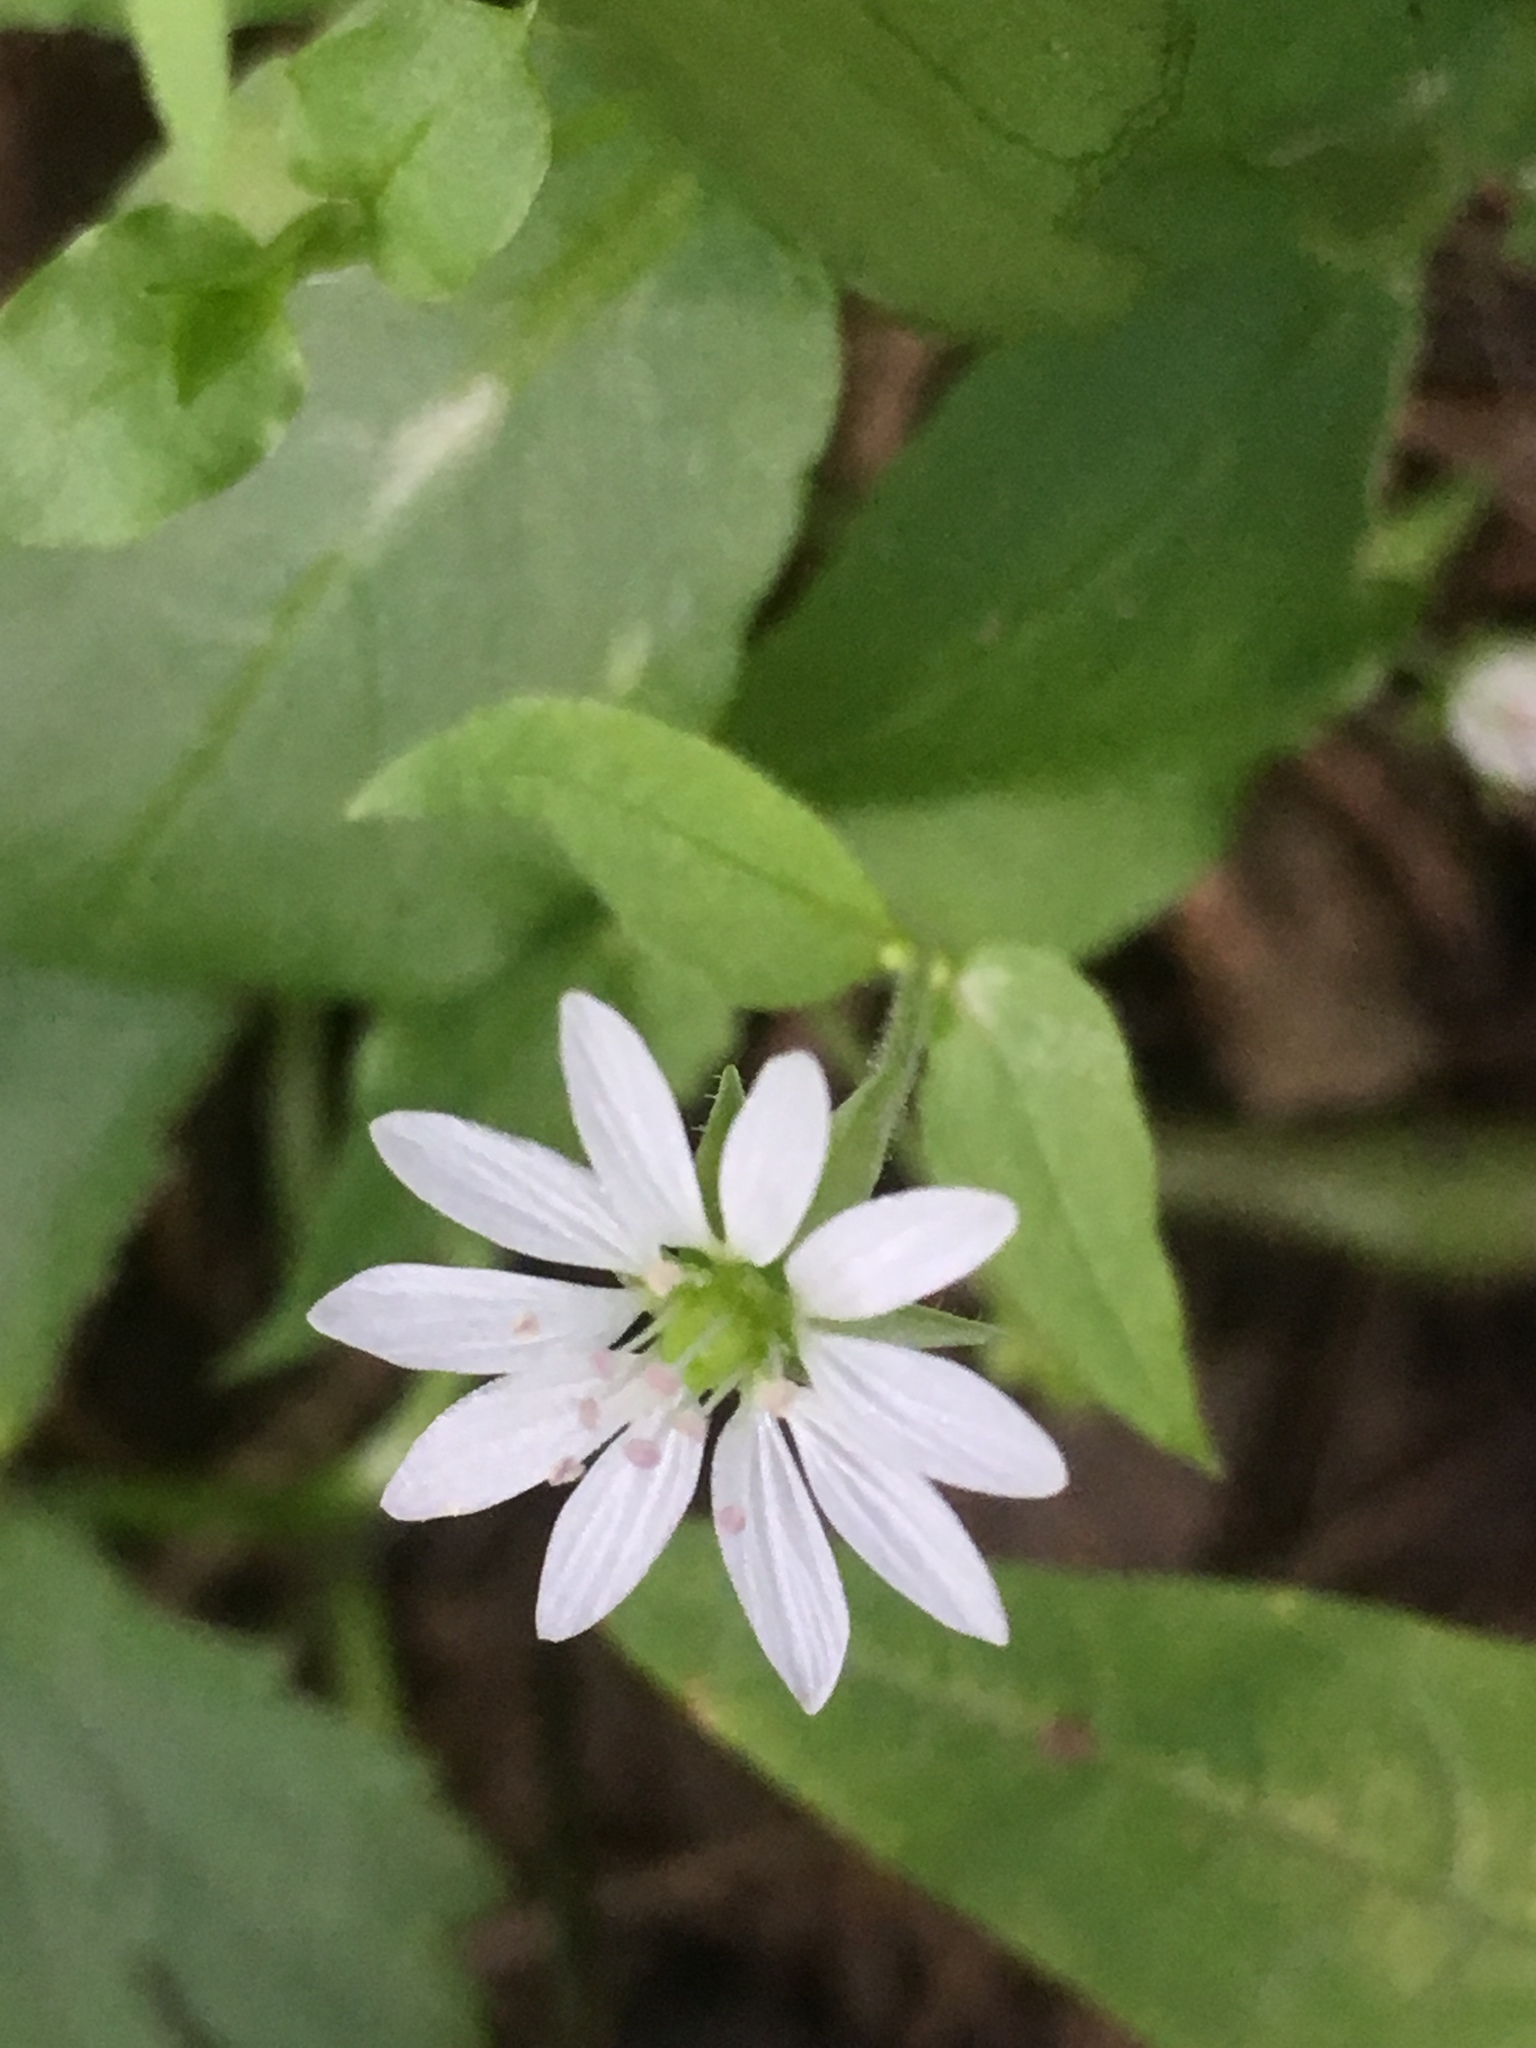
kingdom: Plantae
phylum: Tracheophyta
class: Magnoliopsida
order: Caryophyllales
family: Caryophyllaceae
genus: Stellaria
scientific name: Stellaria aquatica
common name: Water chickweed
